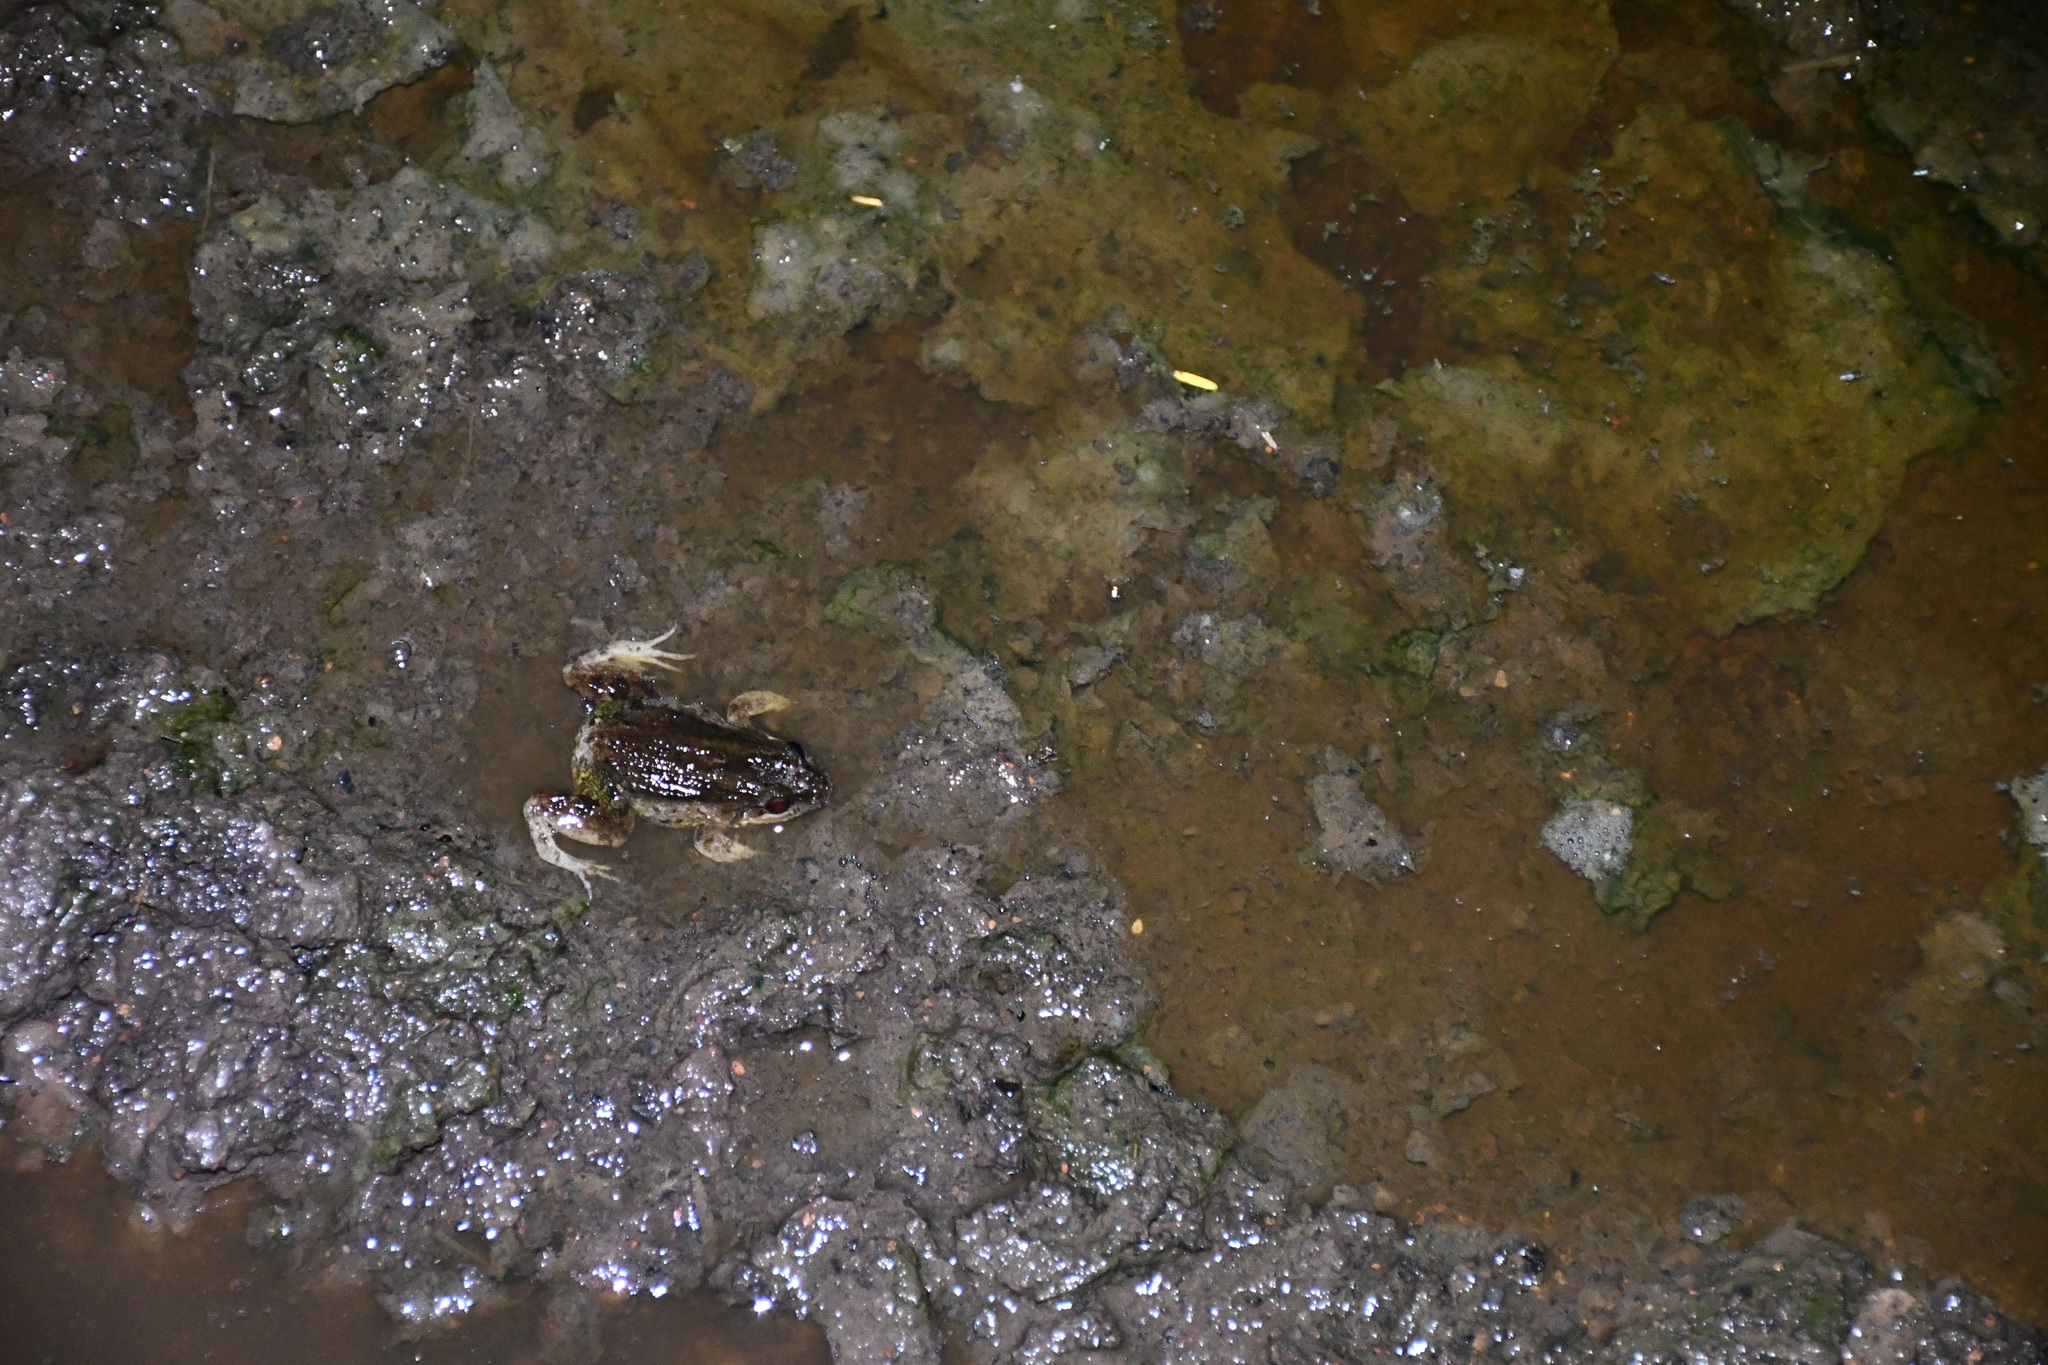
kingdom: Animalia
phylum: Chordata
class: Amphibia
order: Anura
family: Leptodactylidae
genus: Leptodactylus
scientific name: Leptodactylus petersii
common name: Peters' thin-toed frog
